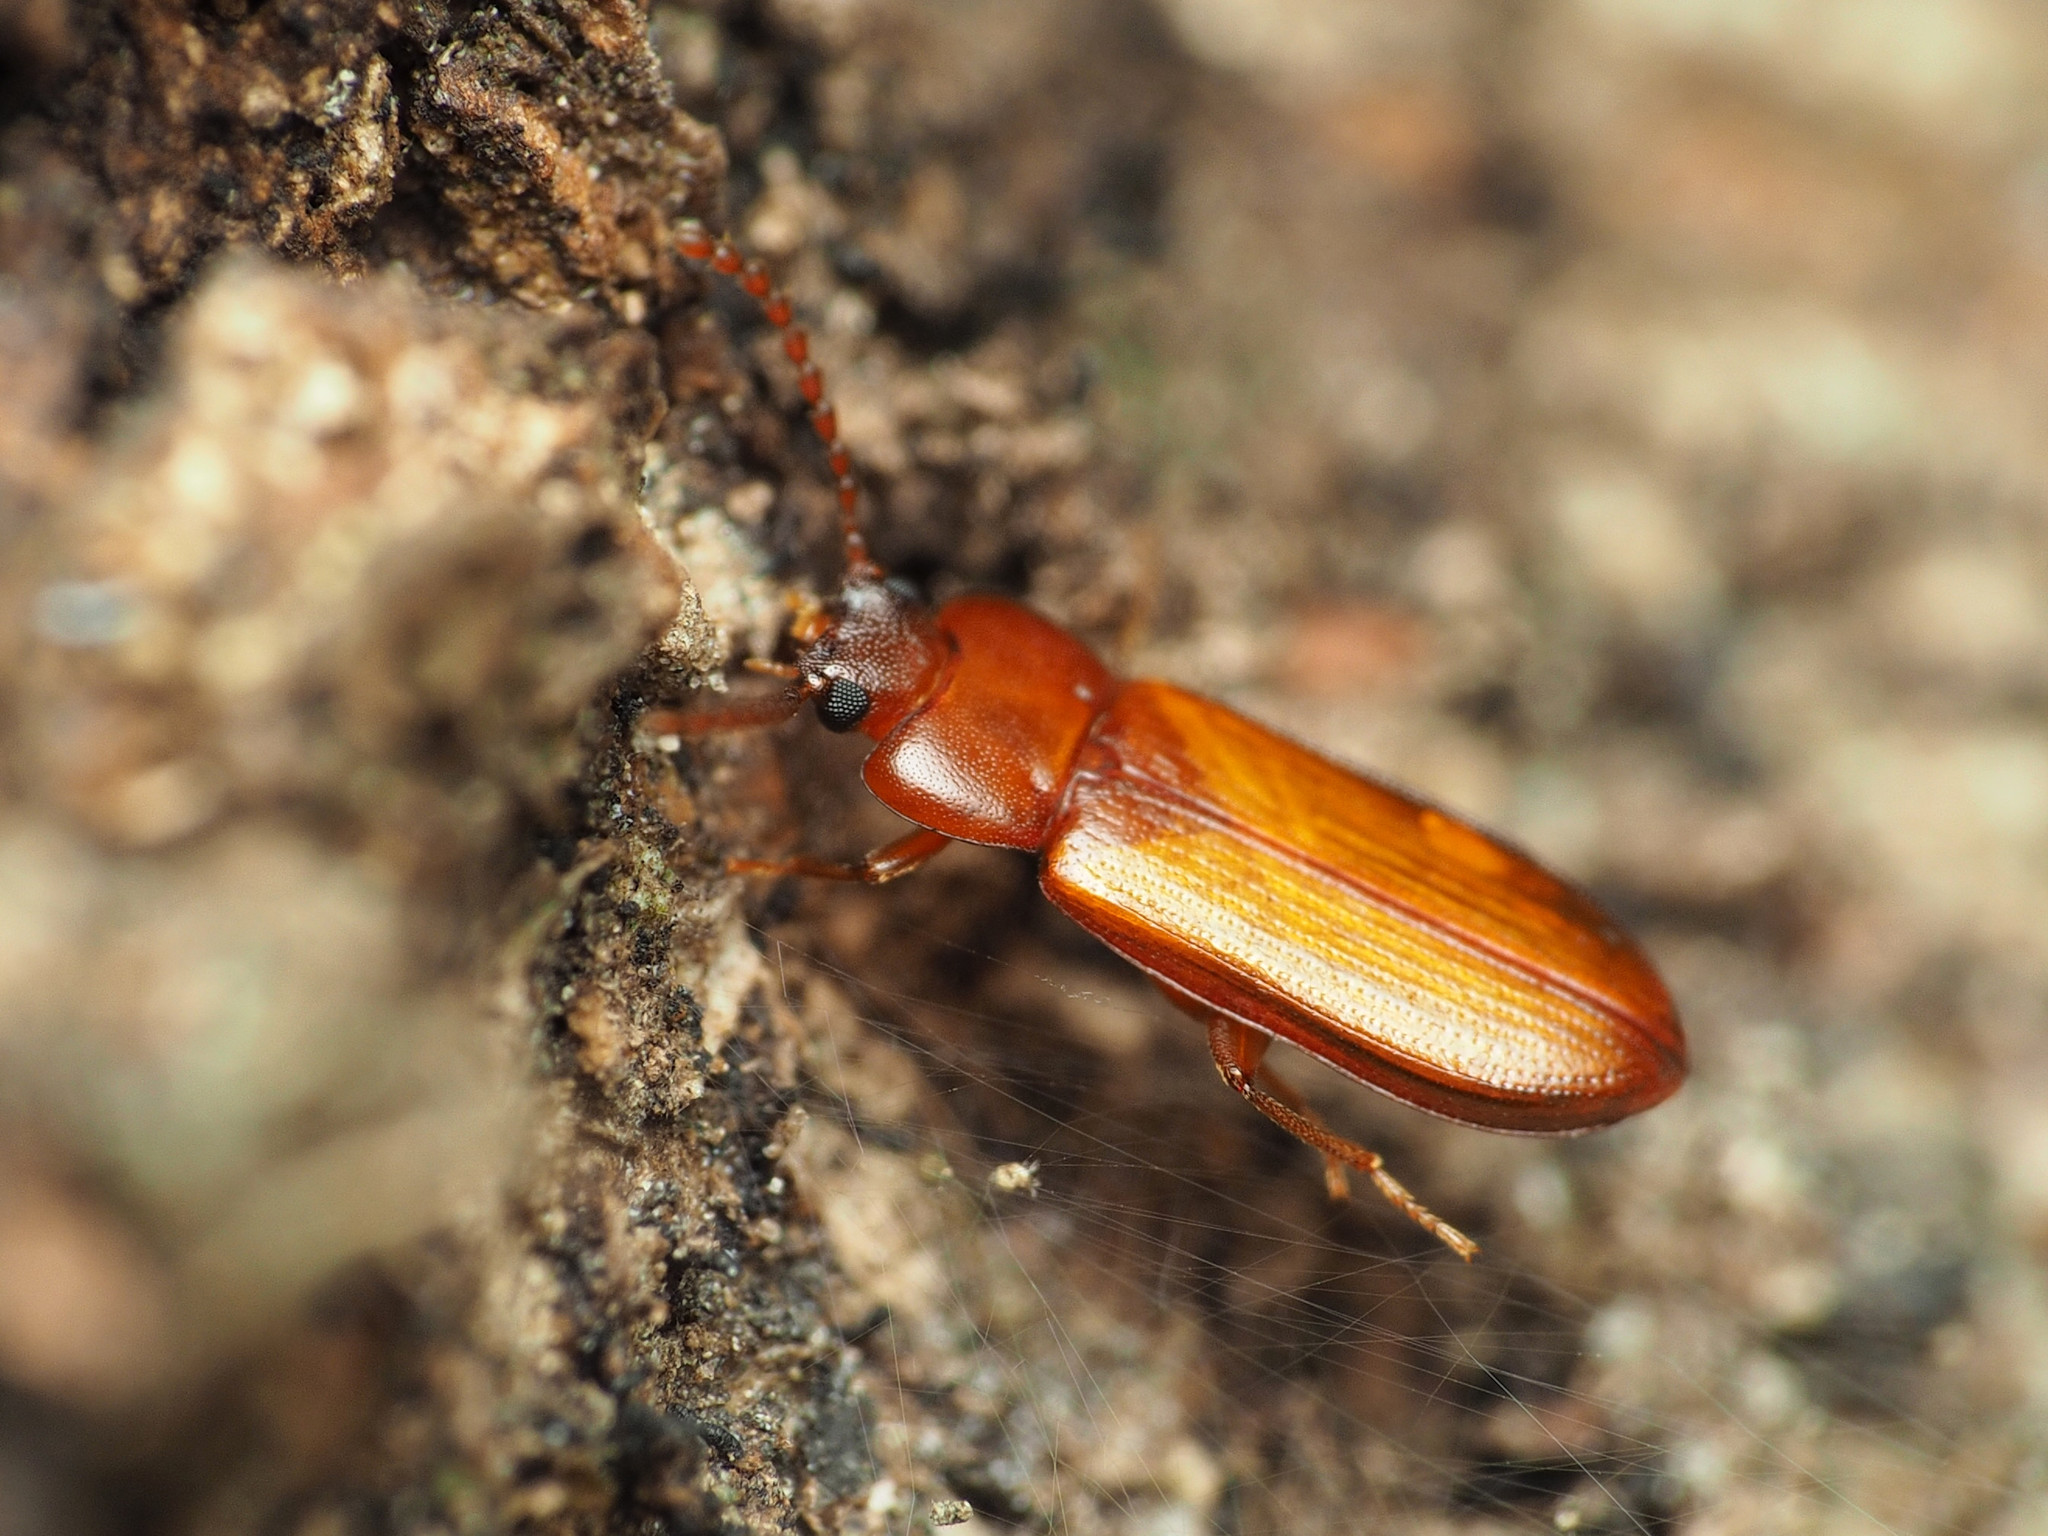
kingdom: Animalia
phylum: Arthropoda
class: Insecta
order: Coleoptera
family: Tenebrionidae
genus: Adelina
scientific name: Adelina pallida
